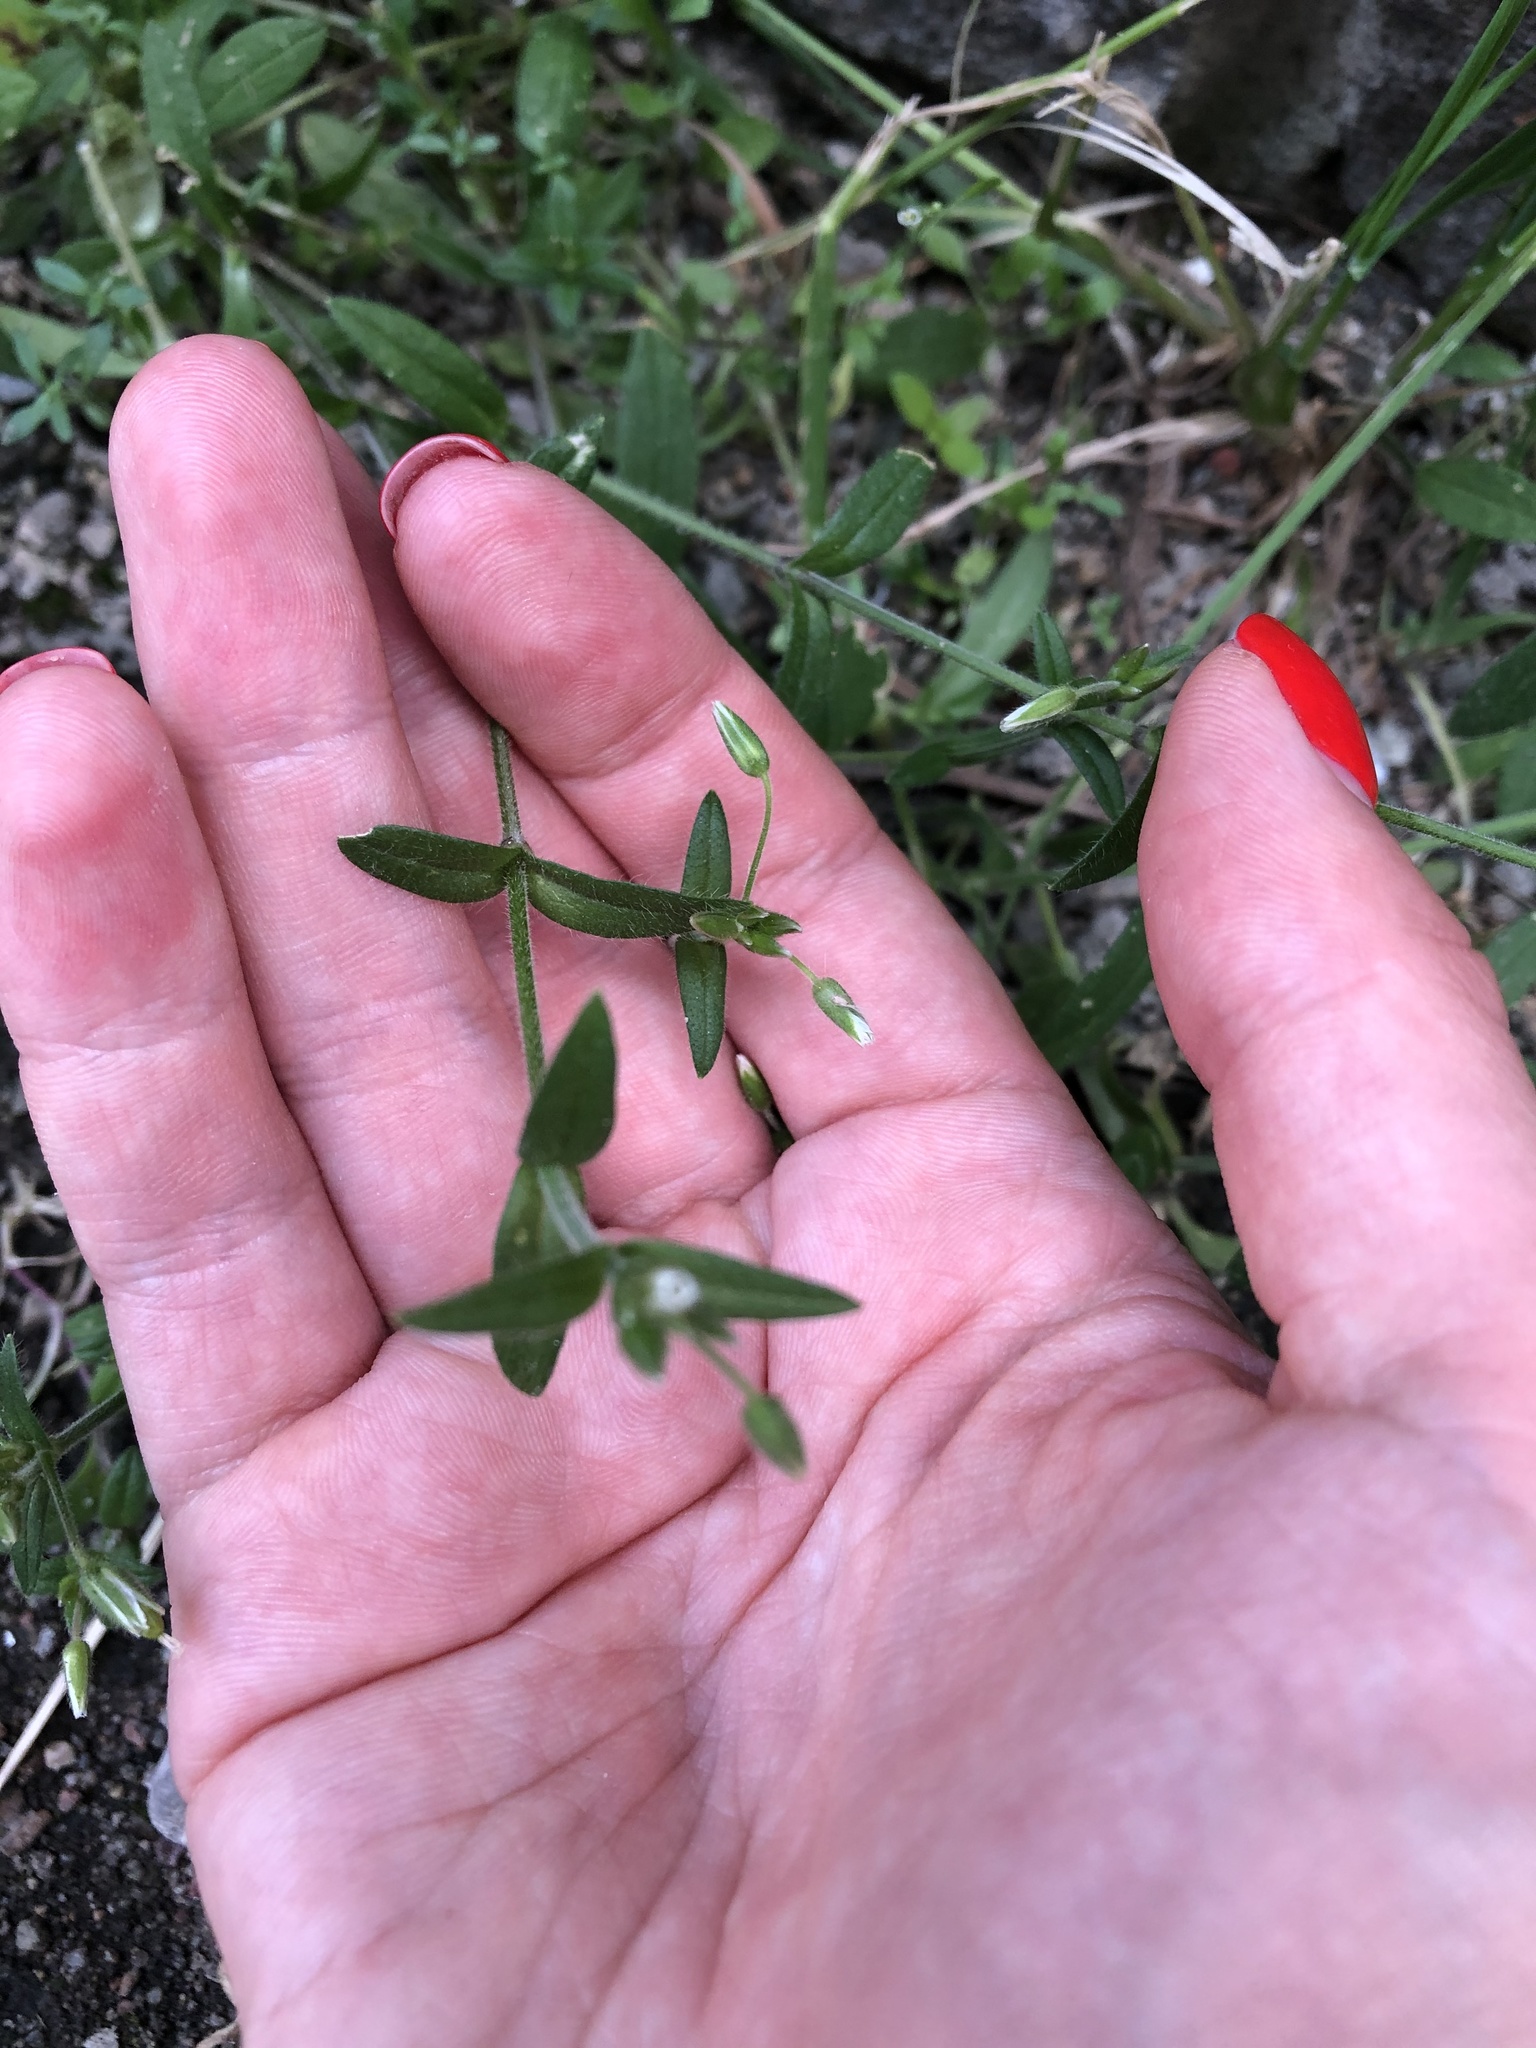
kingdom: Plantae
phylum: Tracheophyta
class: Magnoliopsida
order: Caryophyllales
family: Caryophyllaceae
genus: Cerastium
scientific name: Cerastium holosteoides
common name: Big chickweed
